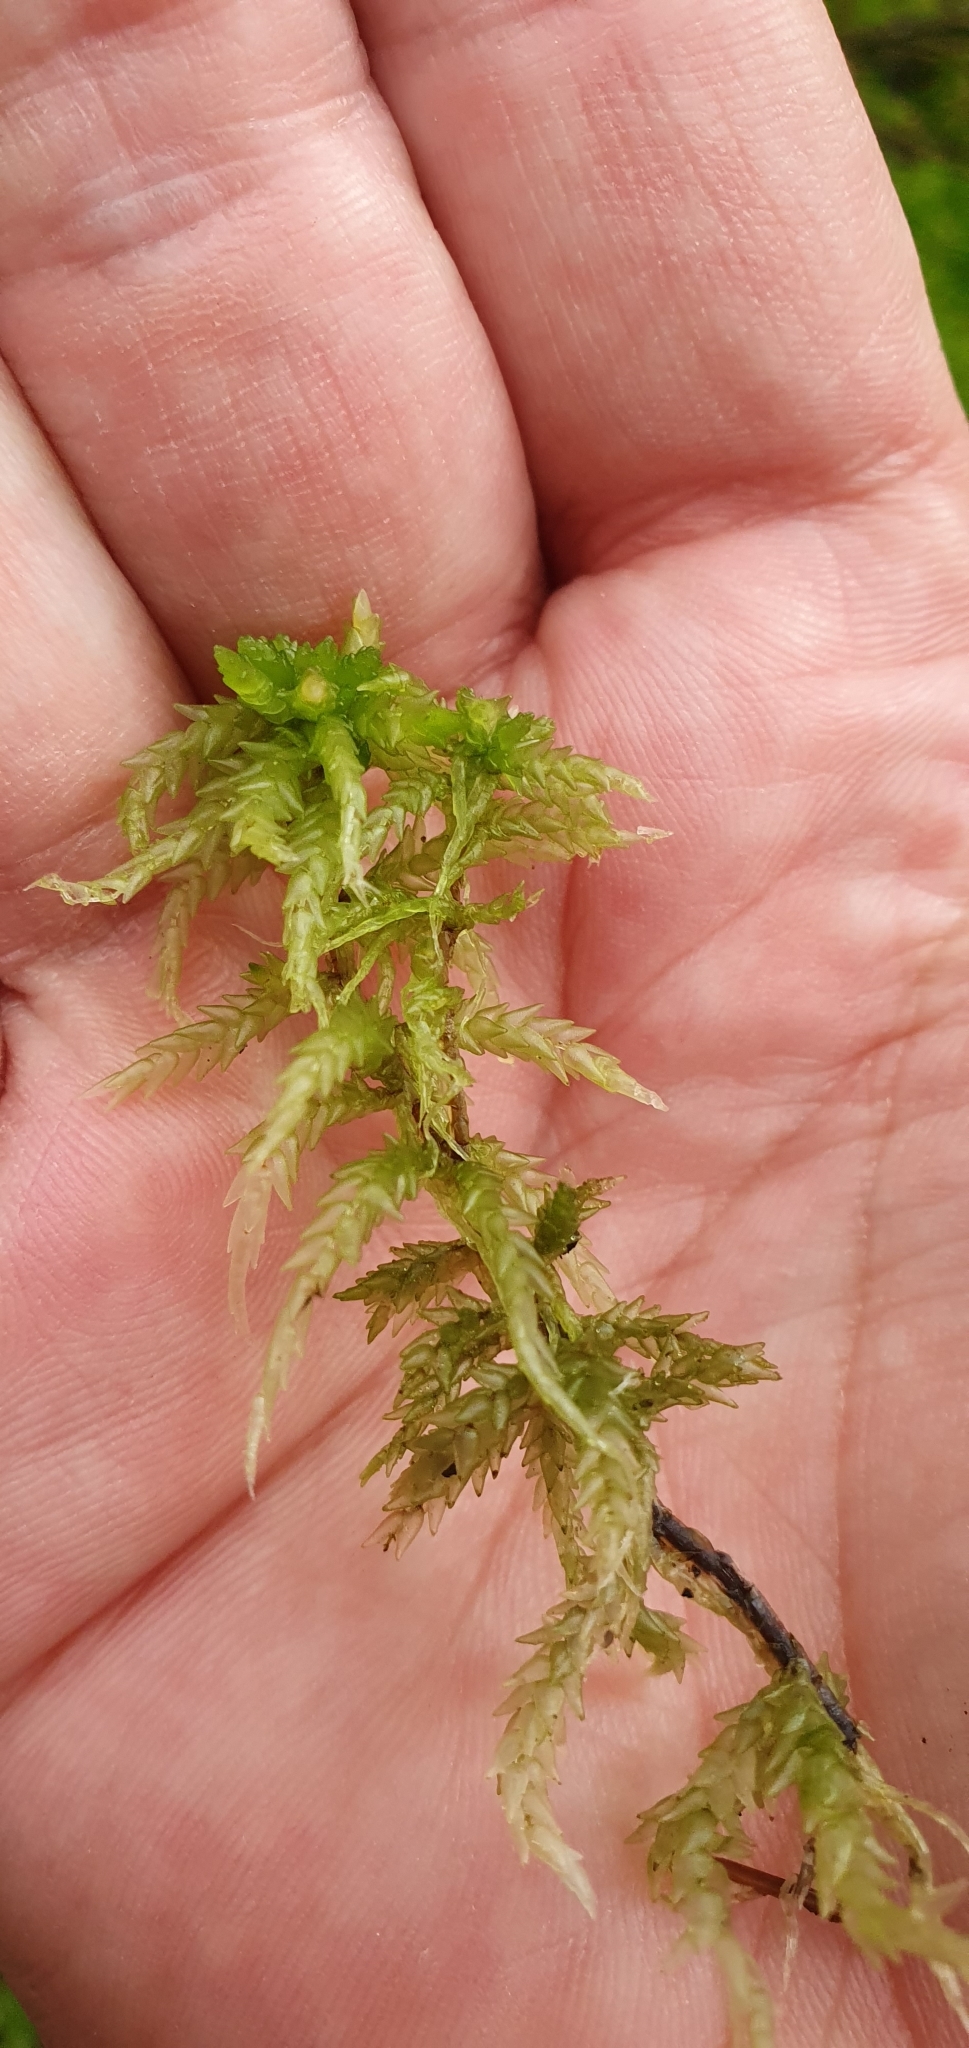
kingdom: Plantae
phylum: Bryophyta
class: Sphagnopsida
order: Sphagnales
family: Sphagnaceae
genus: Sphagnum
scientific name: Sphagnum palustre
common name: Blunt-leaved bog-moss
